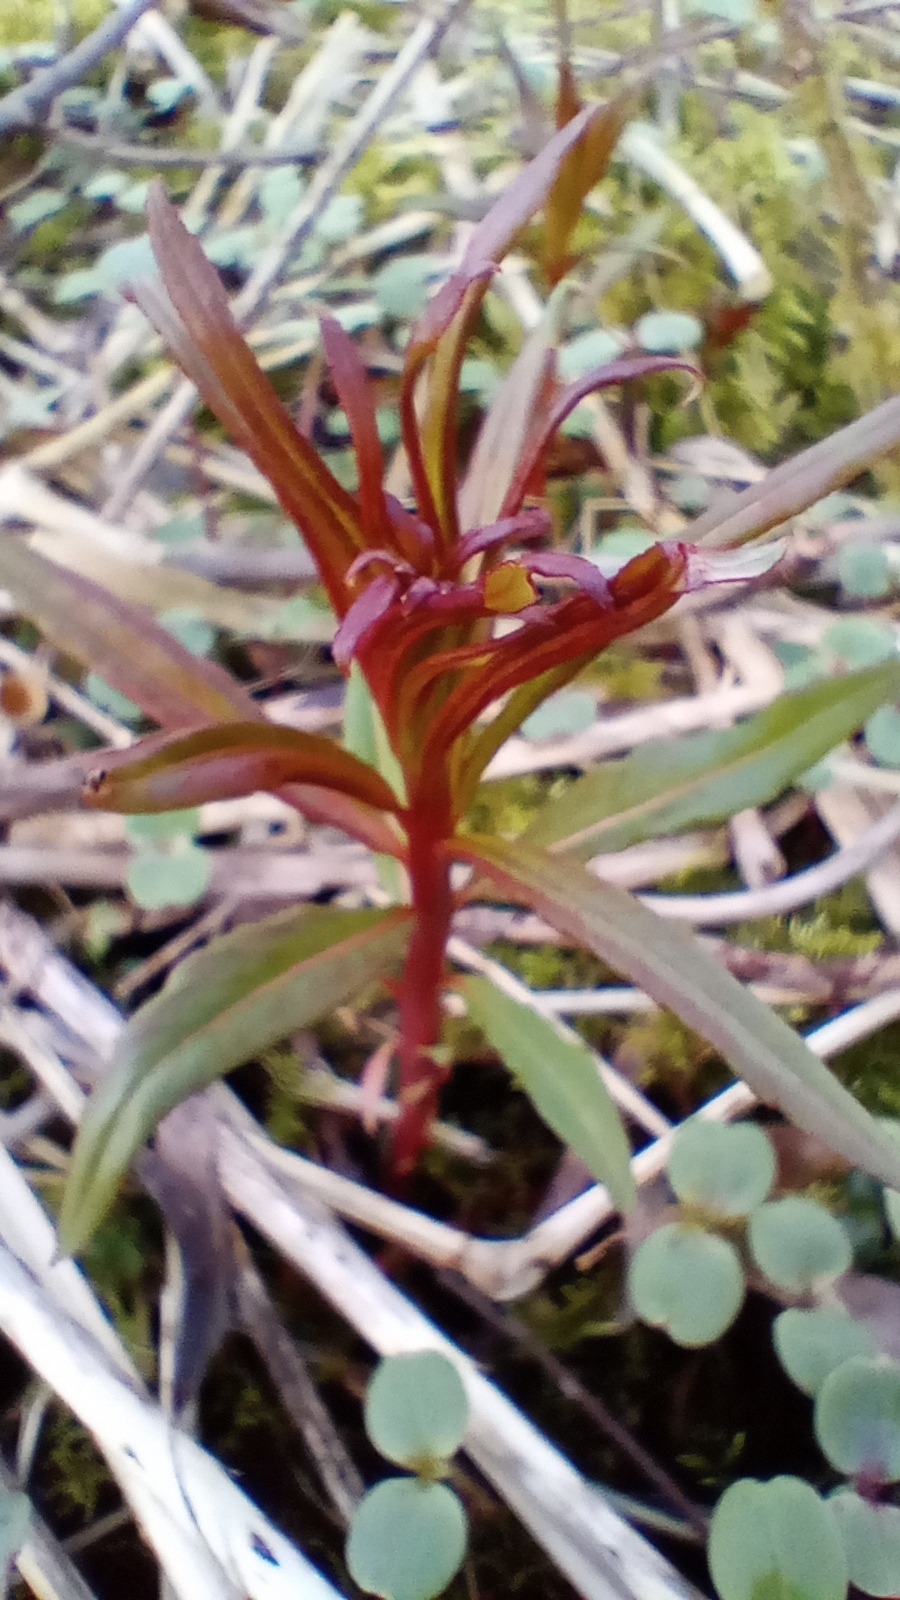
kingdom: Plantae
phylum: Tracheophyta
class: Magnoliopsida
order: Myrtales
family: Onagraceae
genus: Chamaenerion
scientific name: Chamaenerion angustifolium
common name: Fireweed
